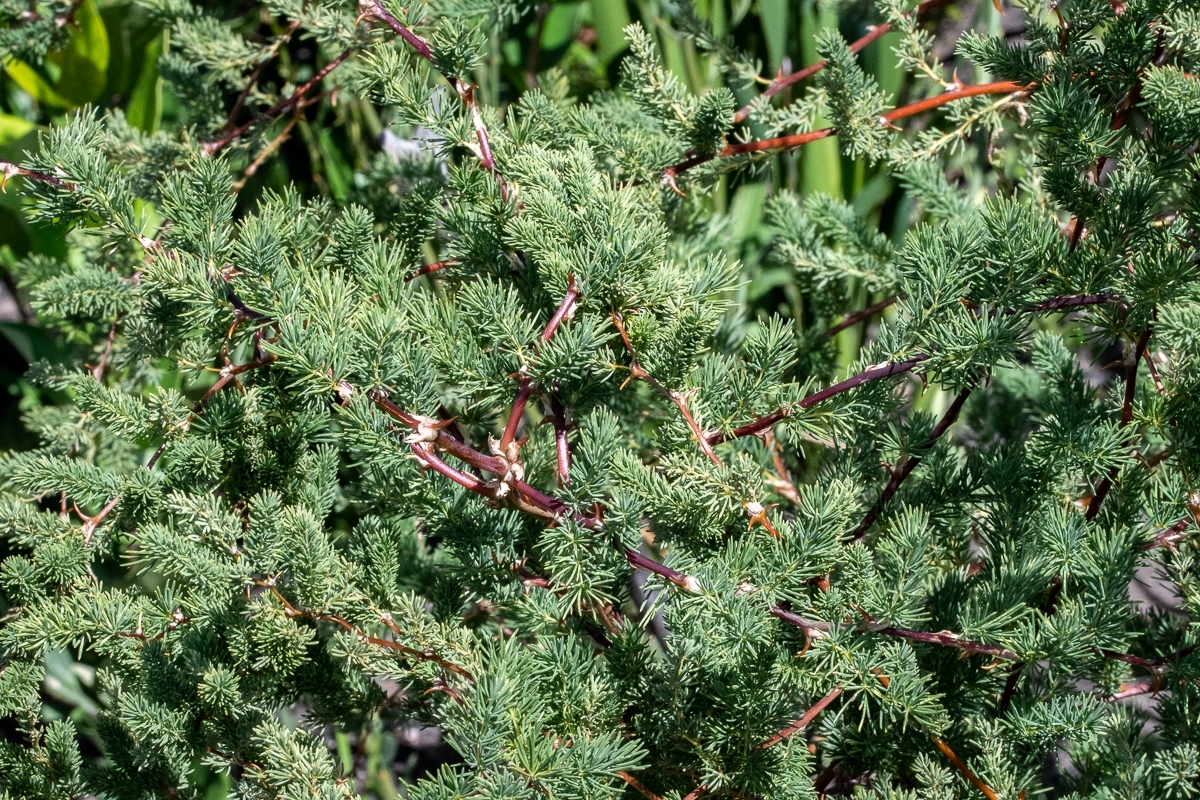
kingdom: Plantae
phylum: Tracheophyta
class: Liliopsida
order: Asparagales
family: Asparagaceae
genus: Asparagus
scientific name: Asparagus rubicundus
